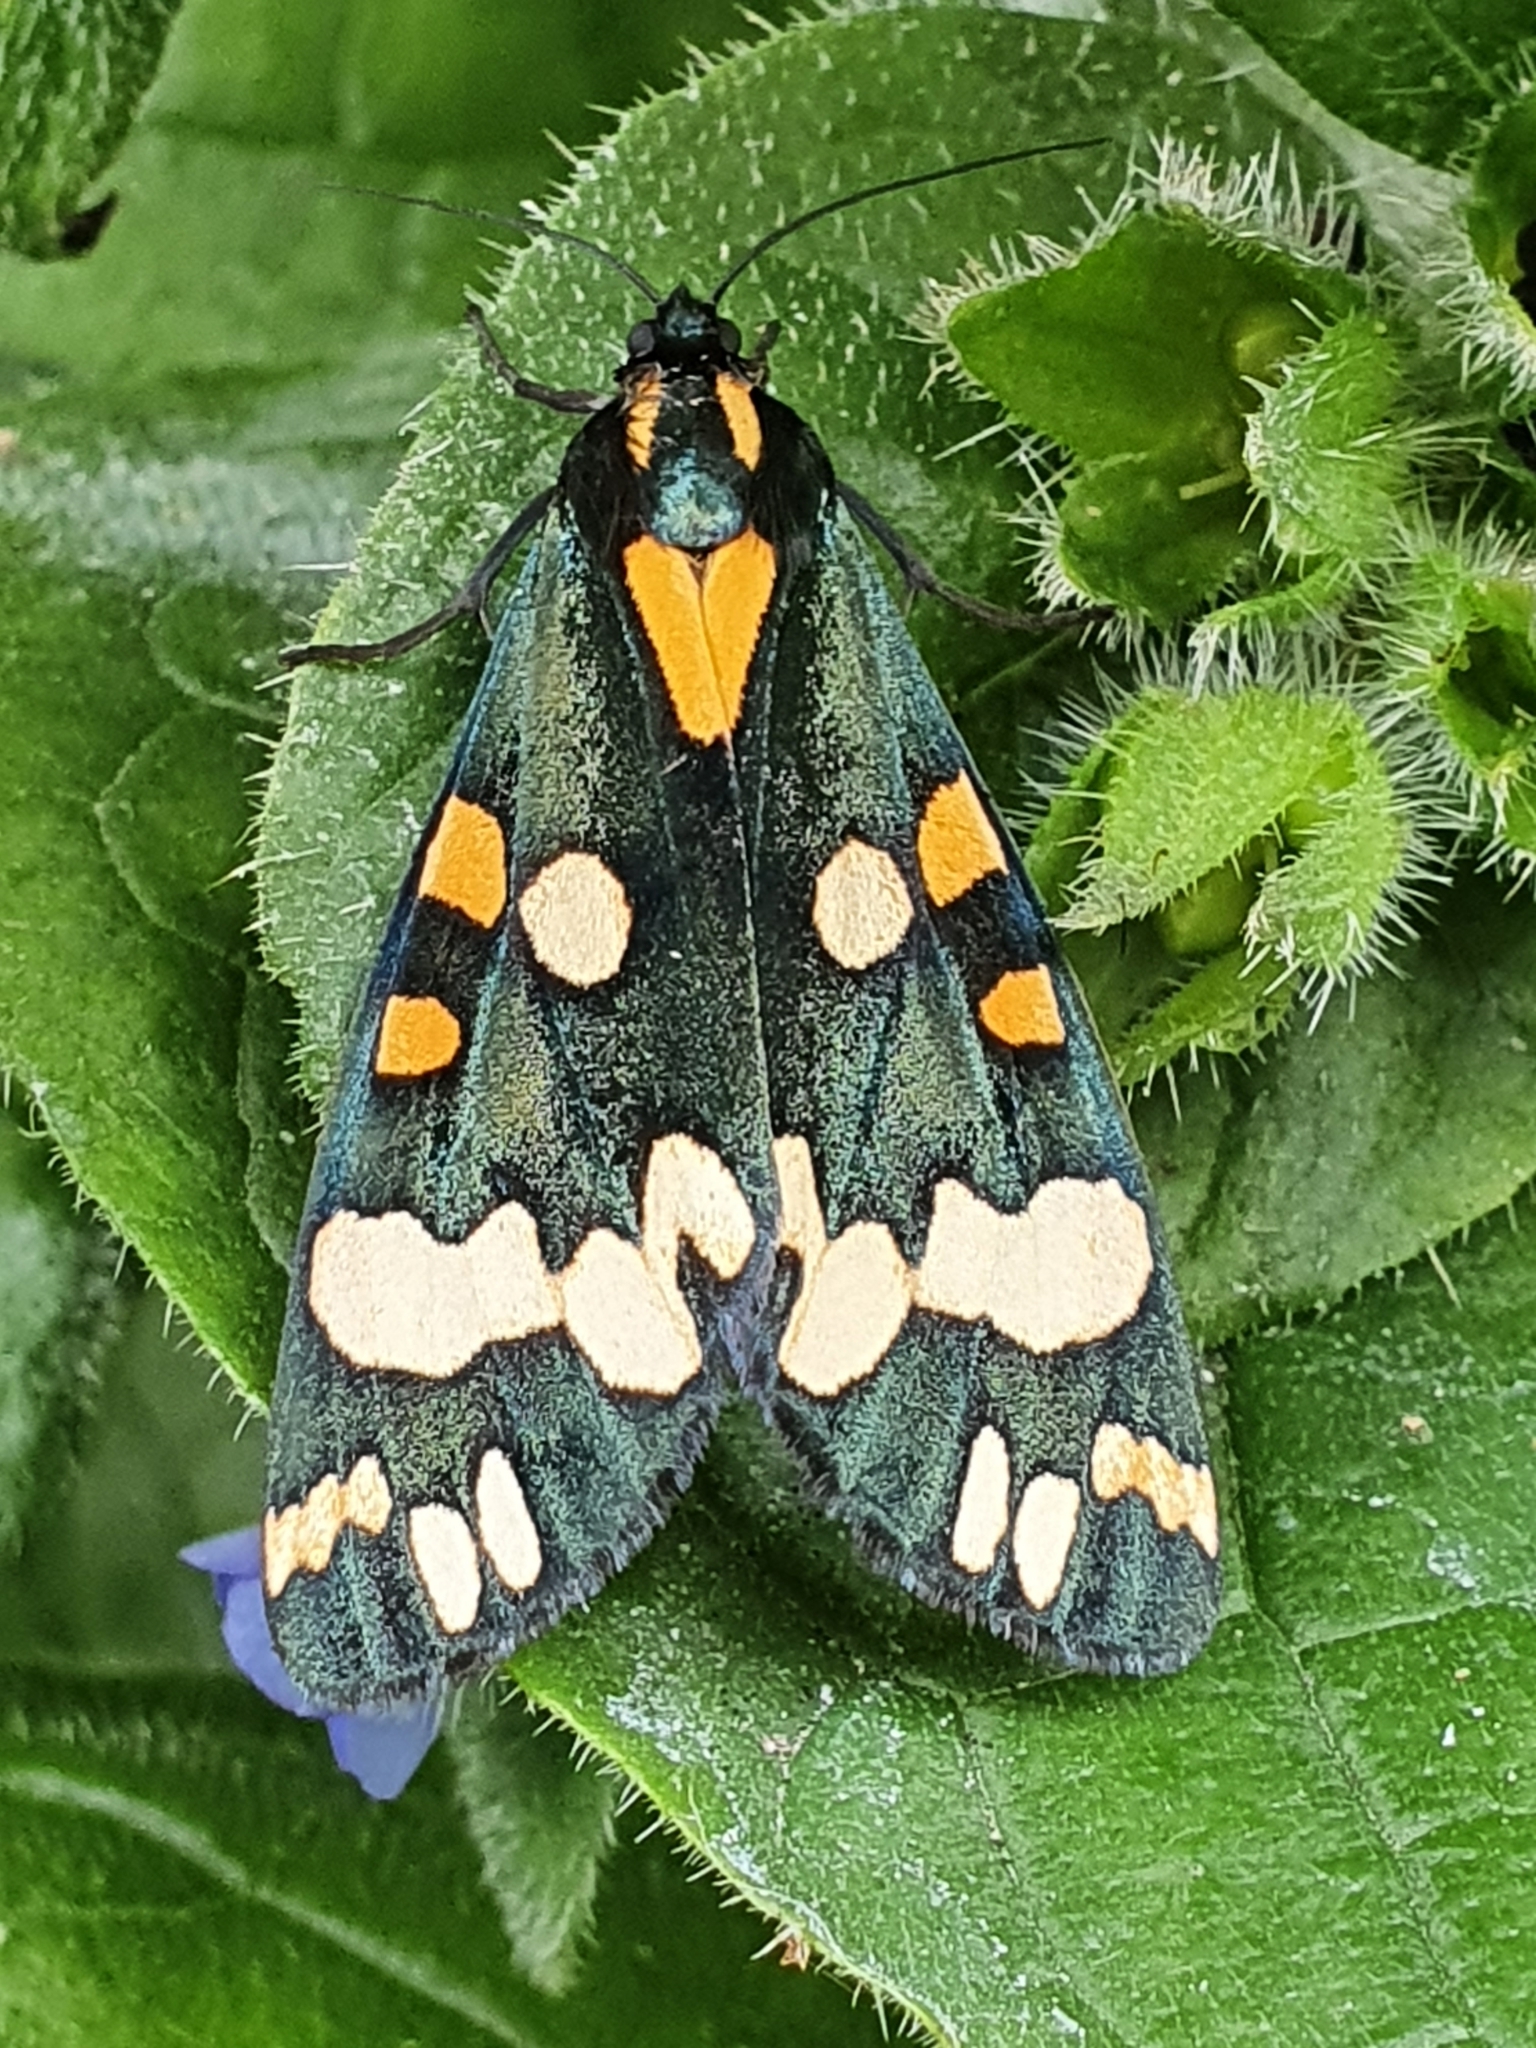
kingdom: Animalia
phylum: Arthropoda
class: Insecta
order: Lepidoptera
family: Erebidae
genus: Callimorpha
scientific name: Callimorpha dominula
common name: Scarlet tiger
